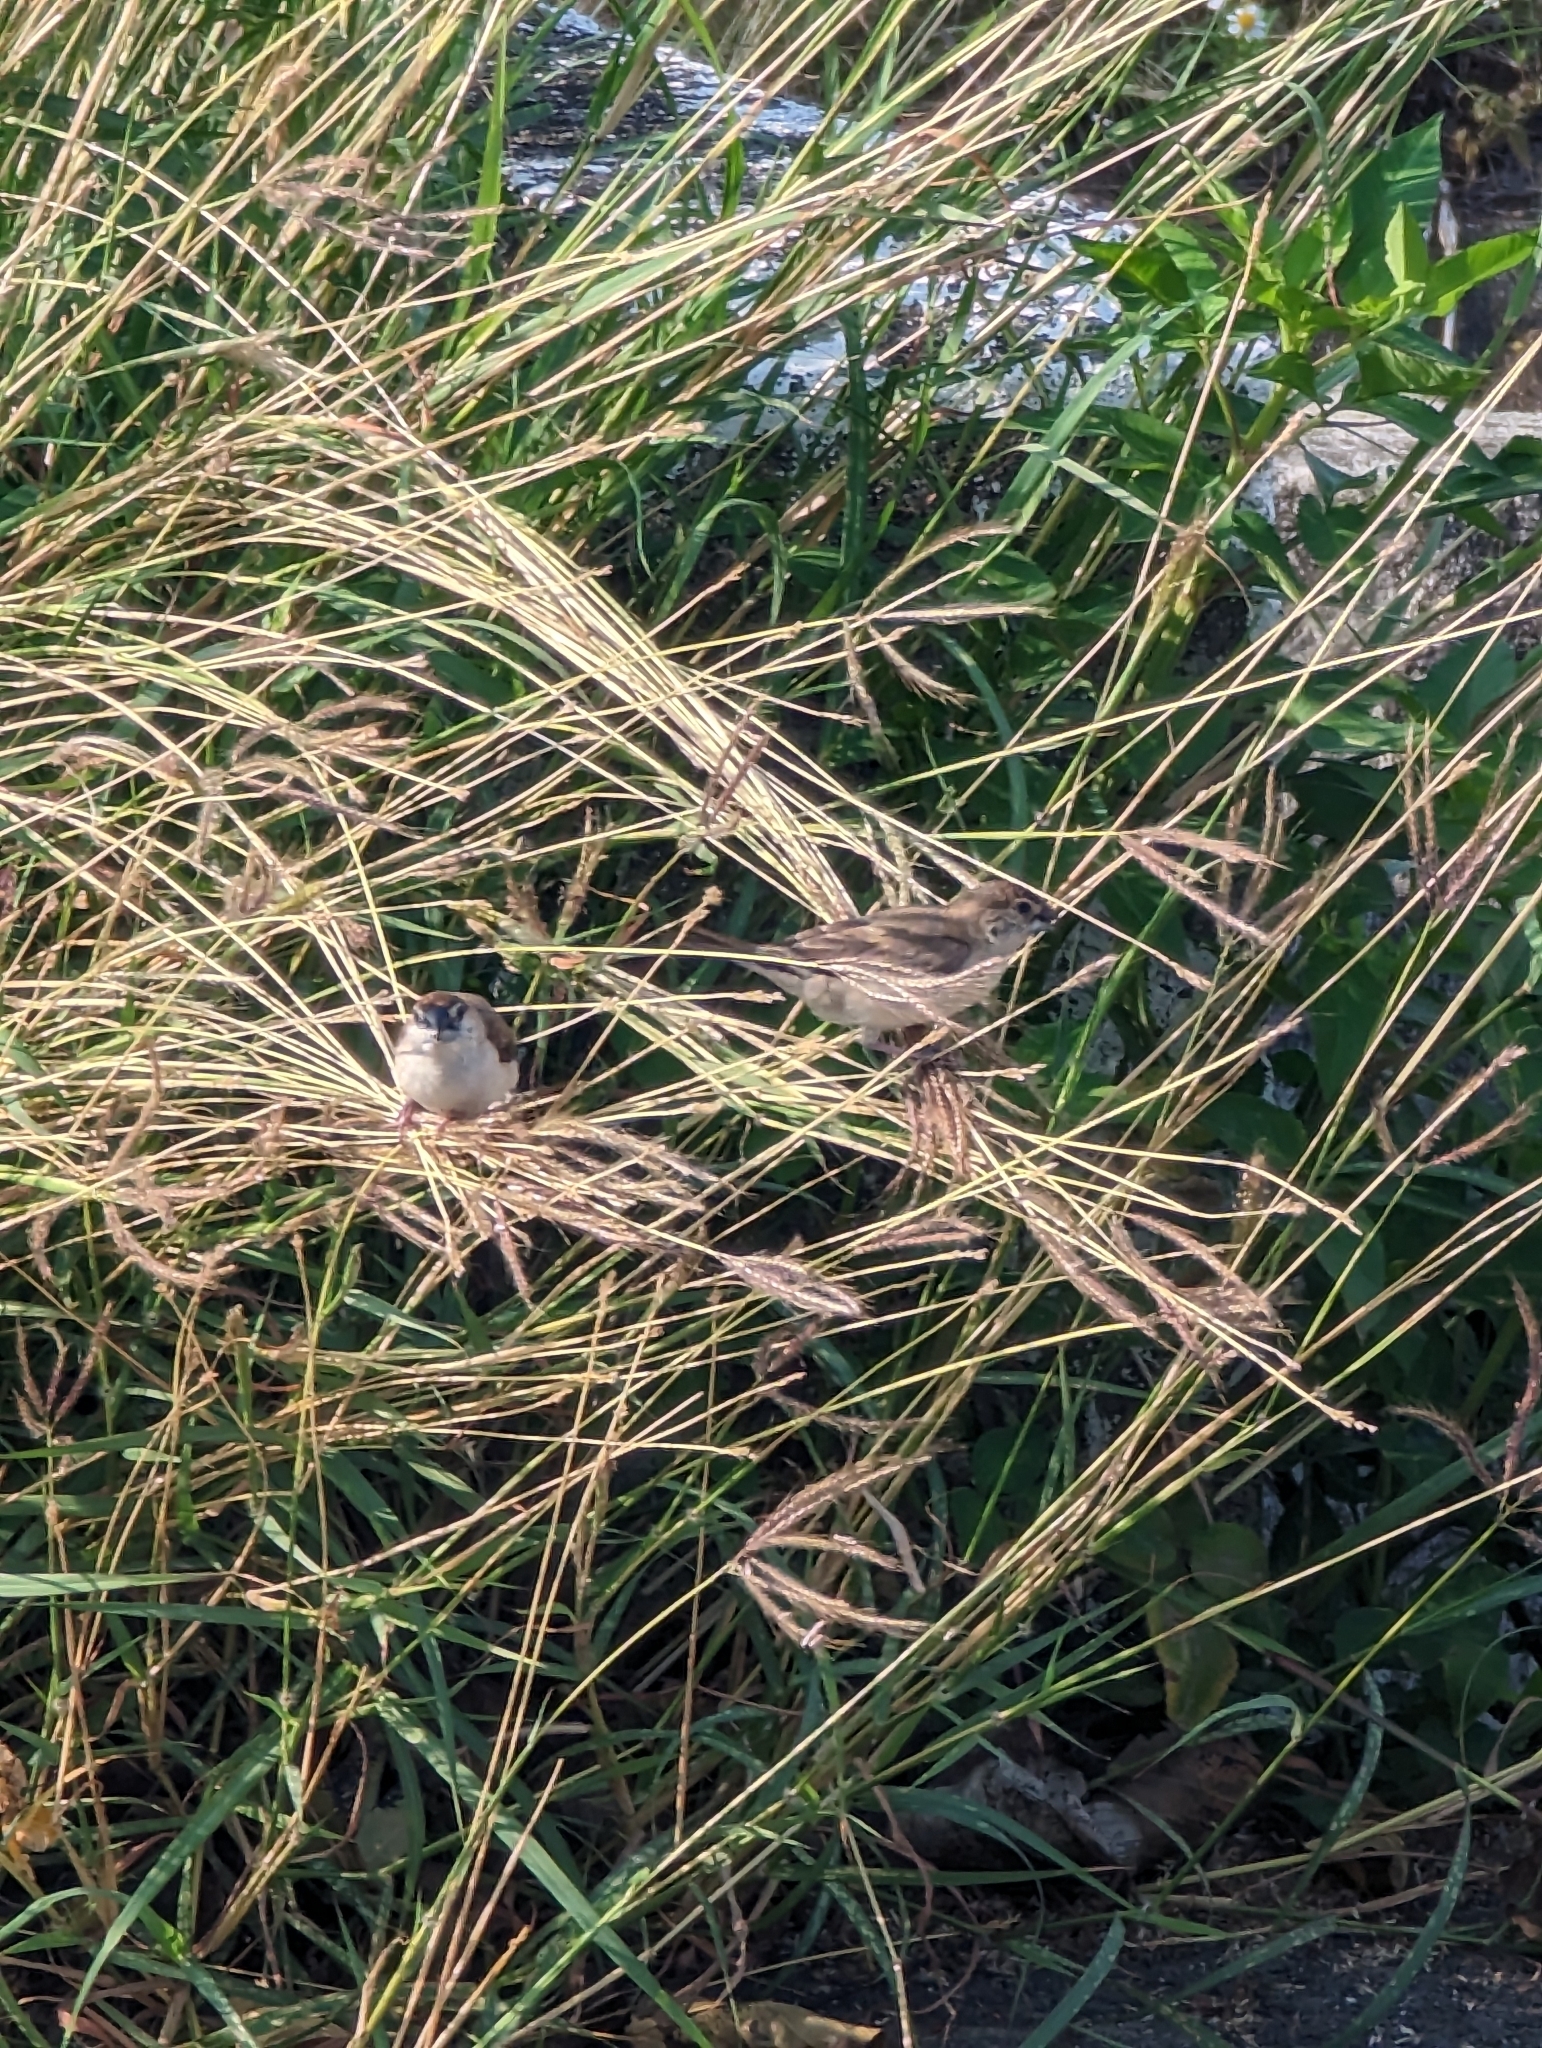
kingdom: Animalia
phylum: Chordata
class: Aves
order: Passeriformes
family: Estrildidae
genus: Euodice
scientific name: Euodice malabarica
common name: Indian silverbill
